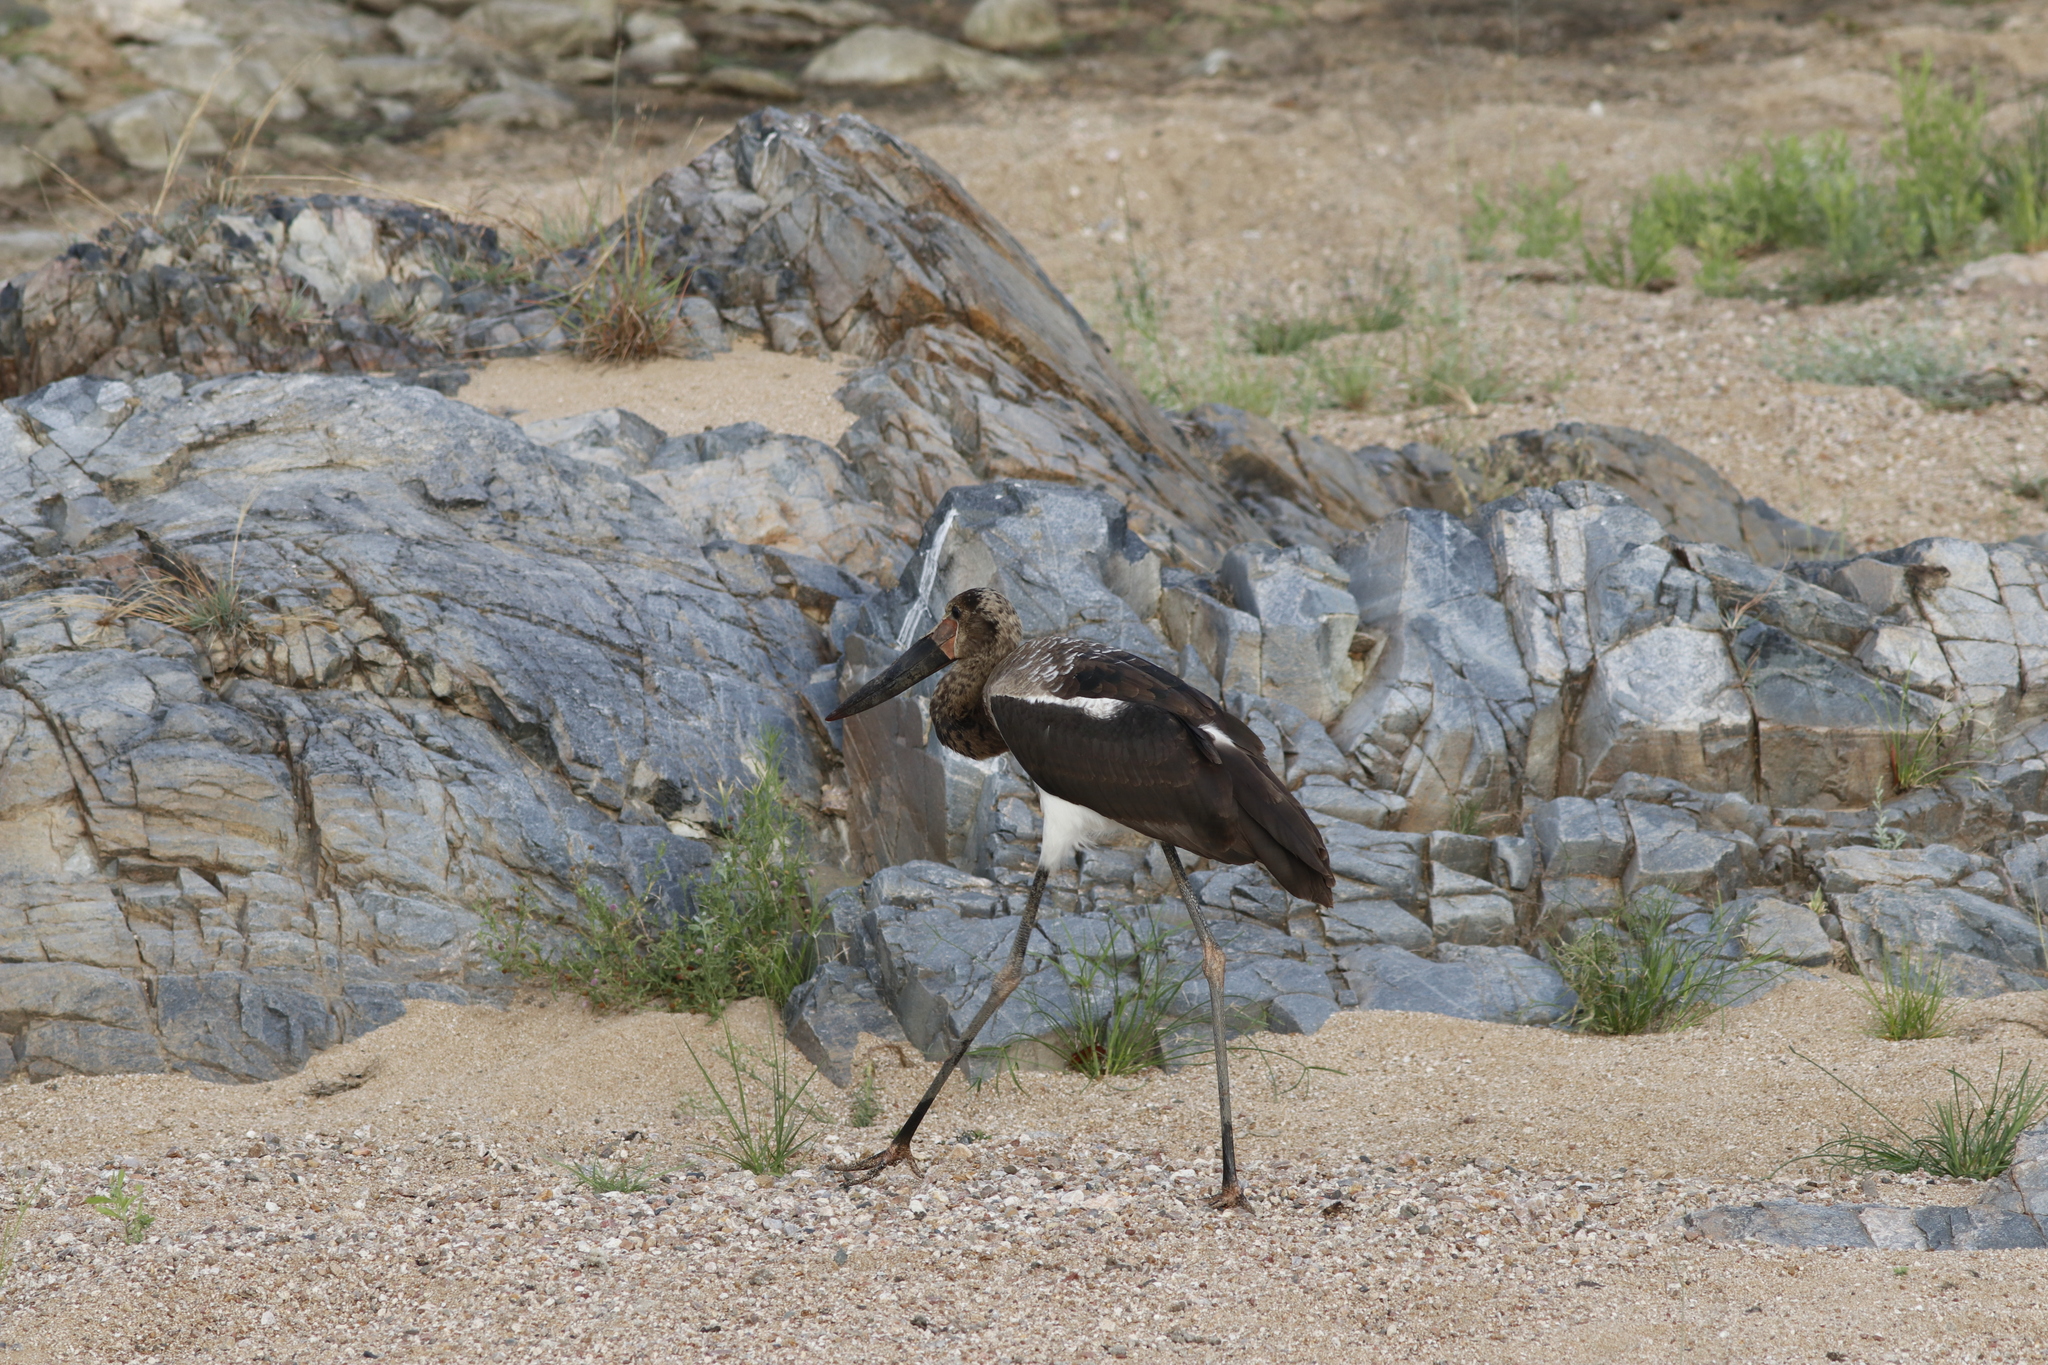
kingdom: Animalia
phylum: Chordata
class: Aves
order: Ciconiiformes
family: Ciconiidae
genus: Ephippiorhynchus
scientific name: Ephippiorhynchus senegalensis
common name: Saddle-billed stork
